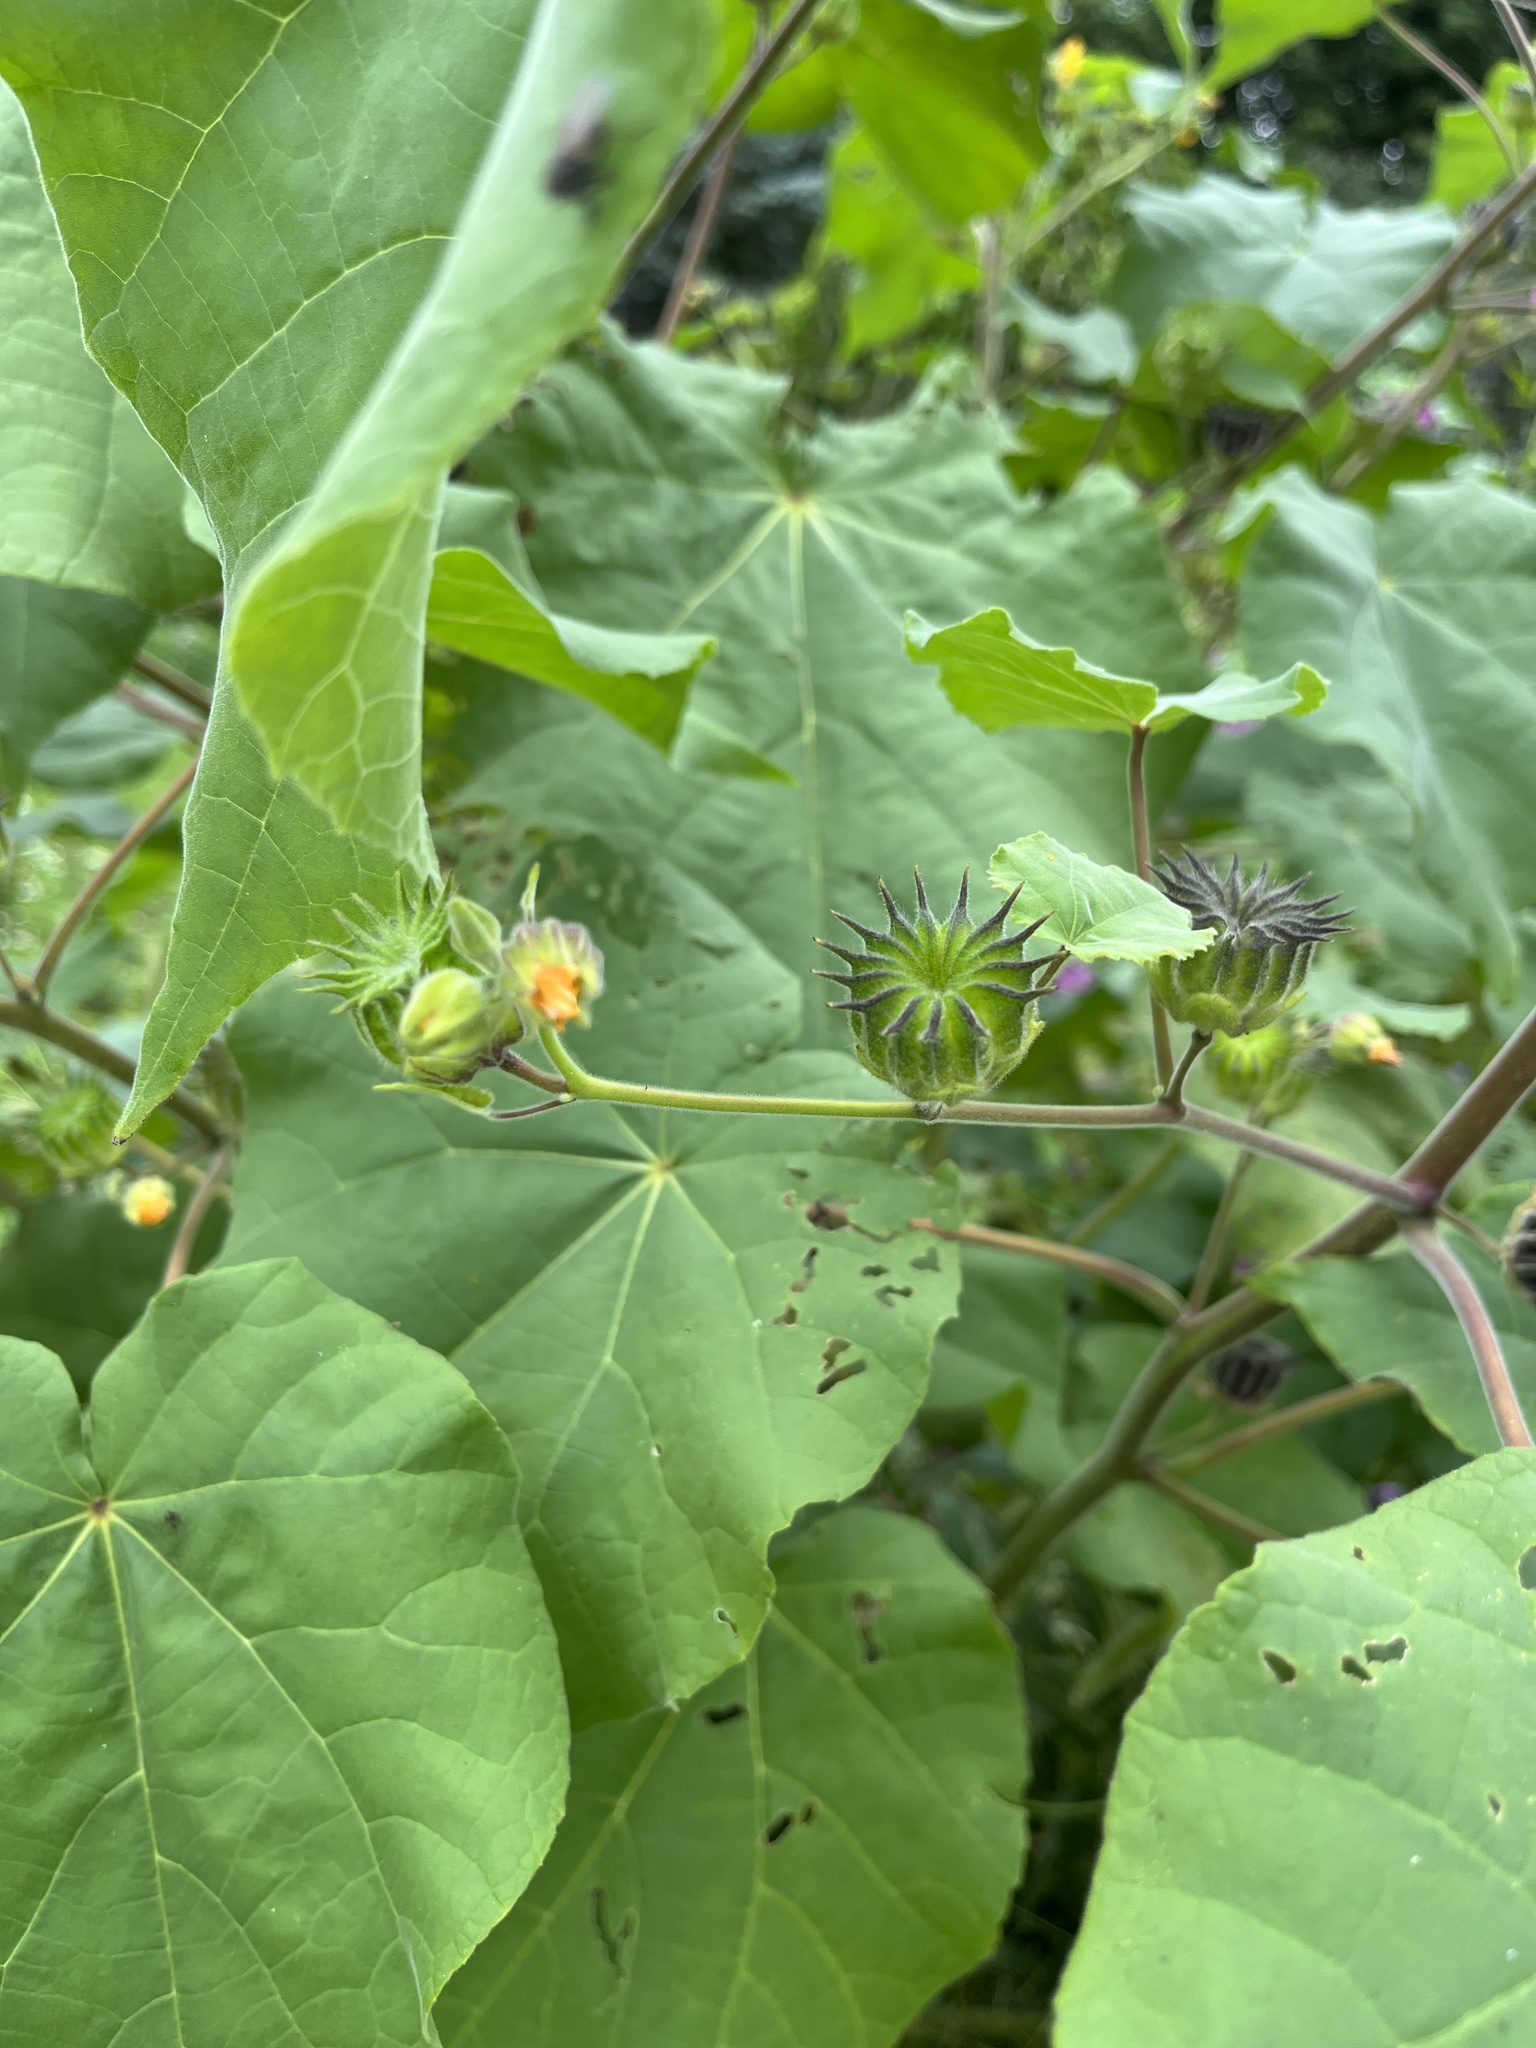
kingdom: Plantae
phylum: Tracheophyta
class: Magnoliopsida
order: Malvales
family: Malvaceae
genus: Abutilon
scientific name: Abutilon theophrasti
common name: Velvetleaf
